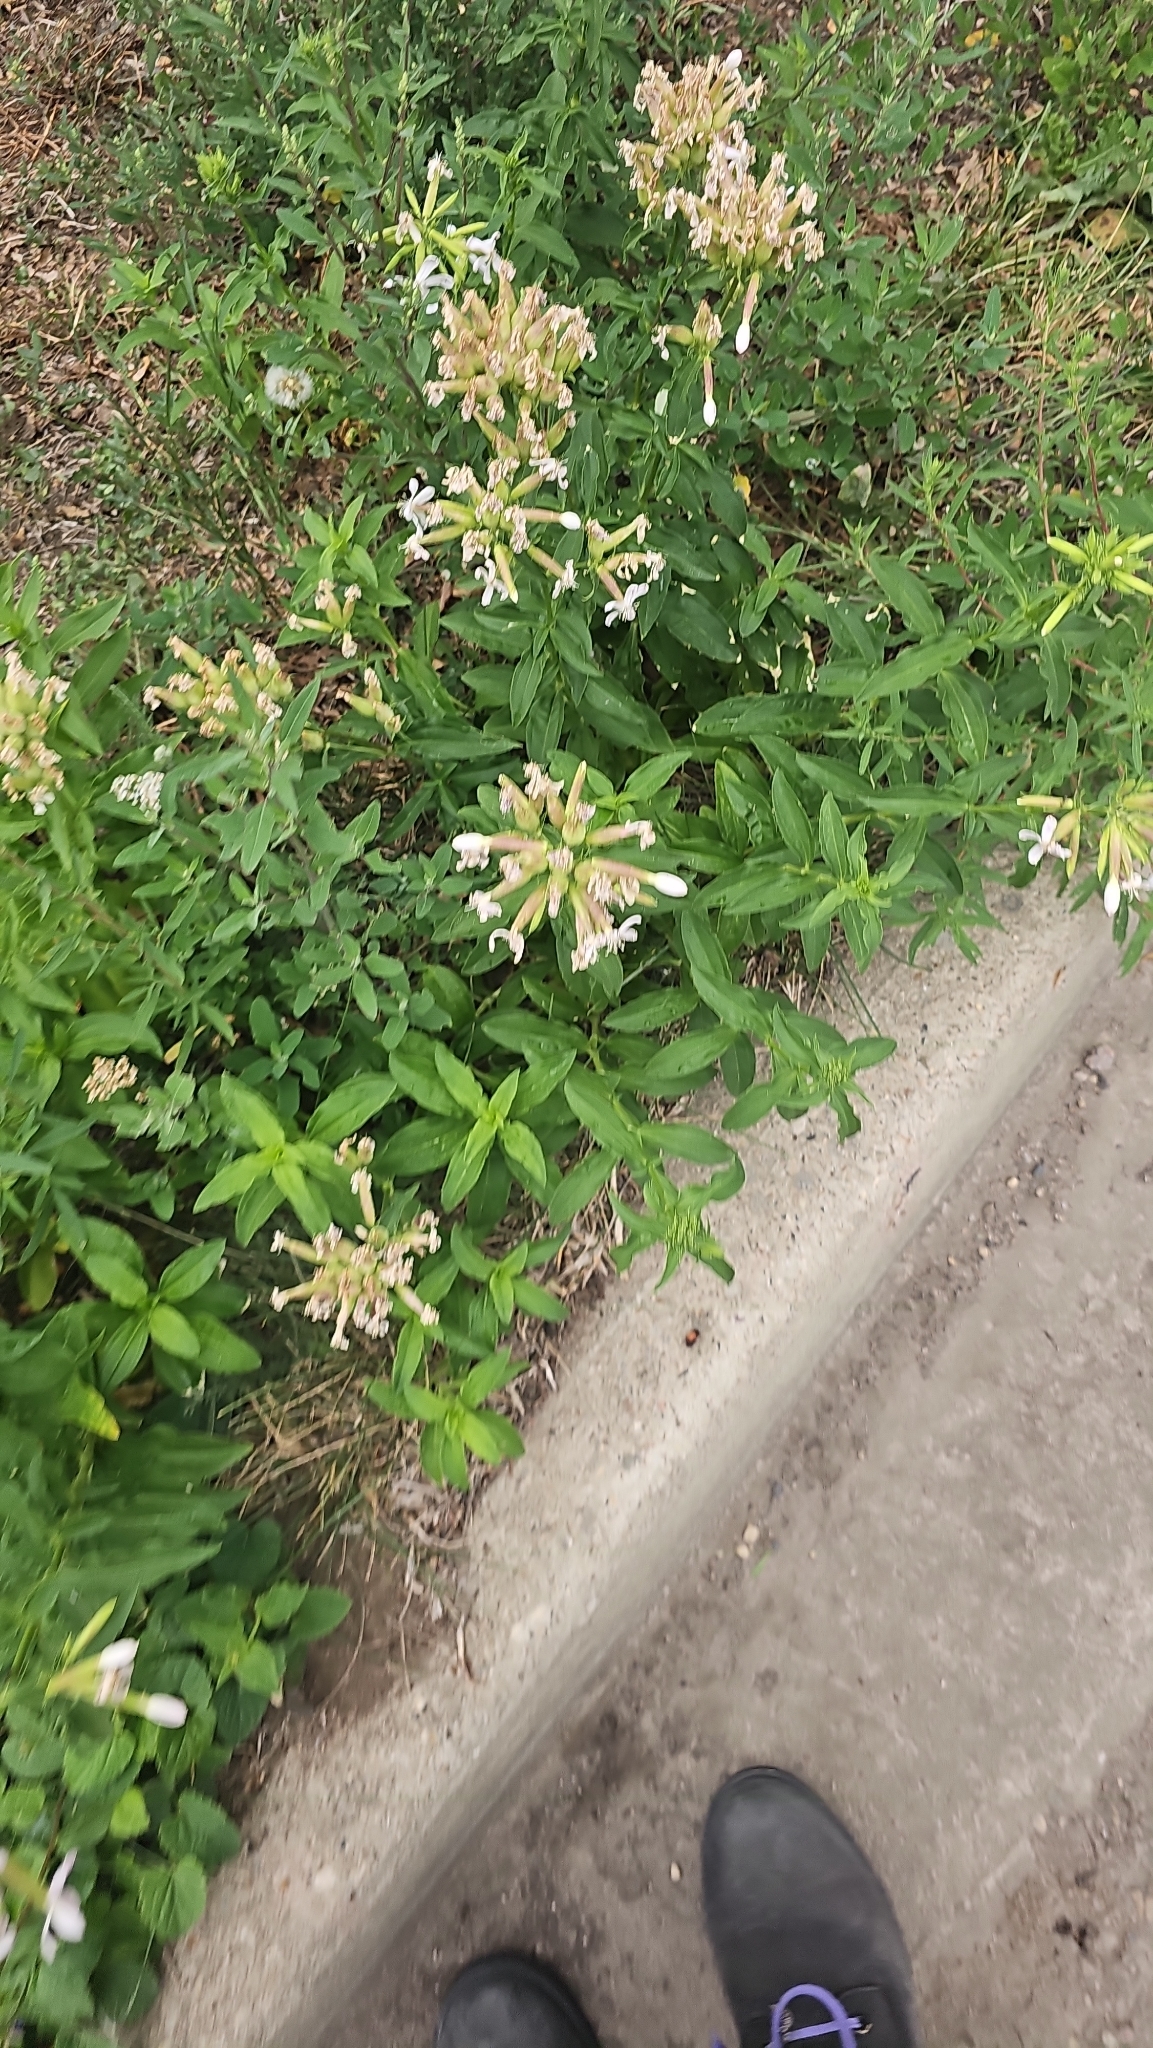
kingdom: Plantae
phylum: Tracheophyta
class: Magnoliopsida
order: Caryophyllales
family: Caryophyllaceae
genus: Saponaria
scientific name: Saponaria officinalis
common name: Soapwort
